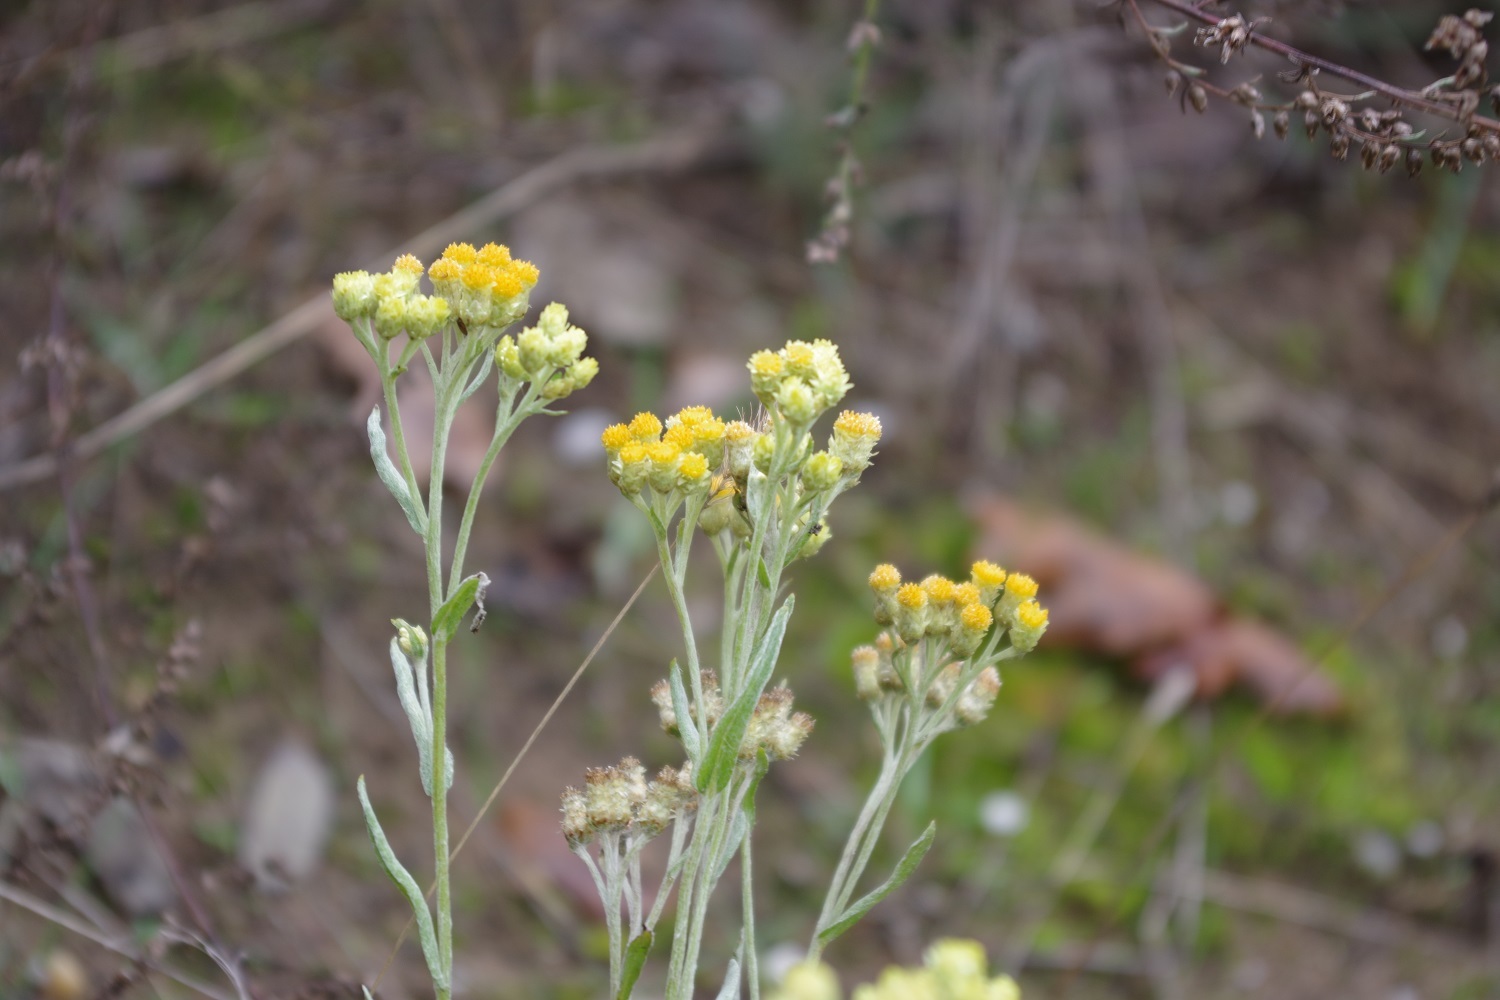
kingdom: Plantae
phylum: Tracheophyta
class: Magnoliopsida
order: Asterales
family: Asteraceae
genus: Helichrysum
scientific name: Helichrysum arenarium
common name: Strawflower
